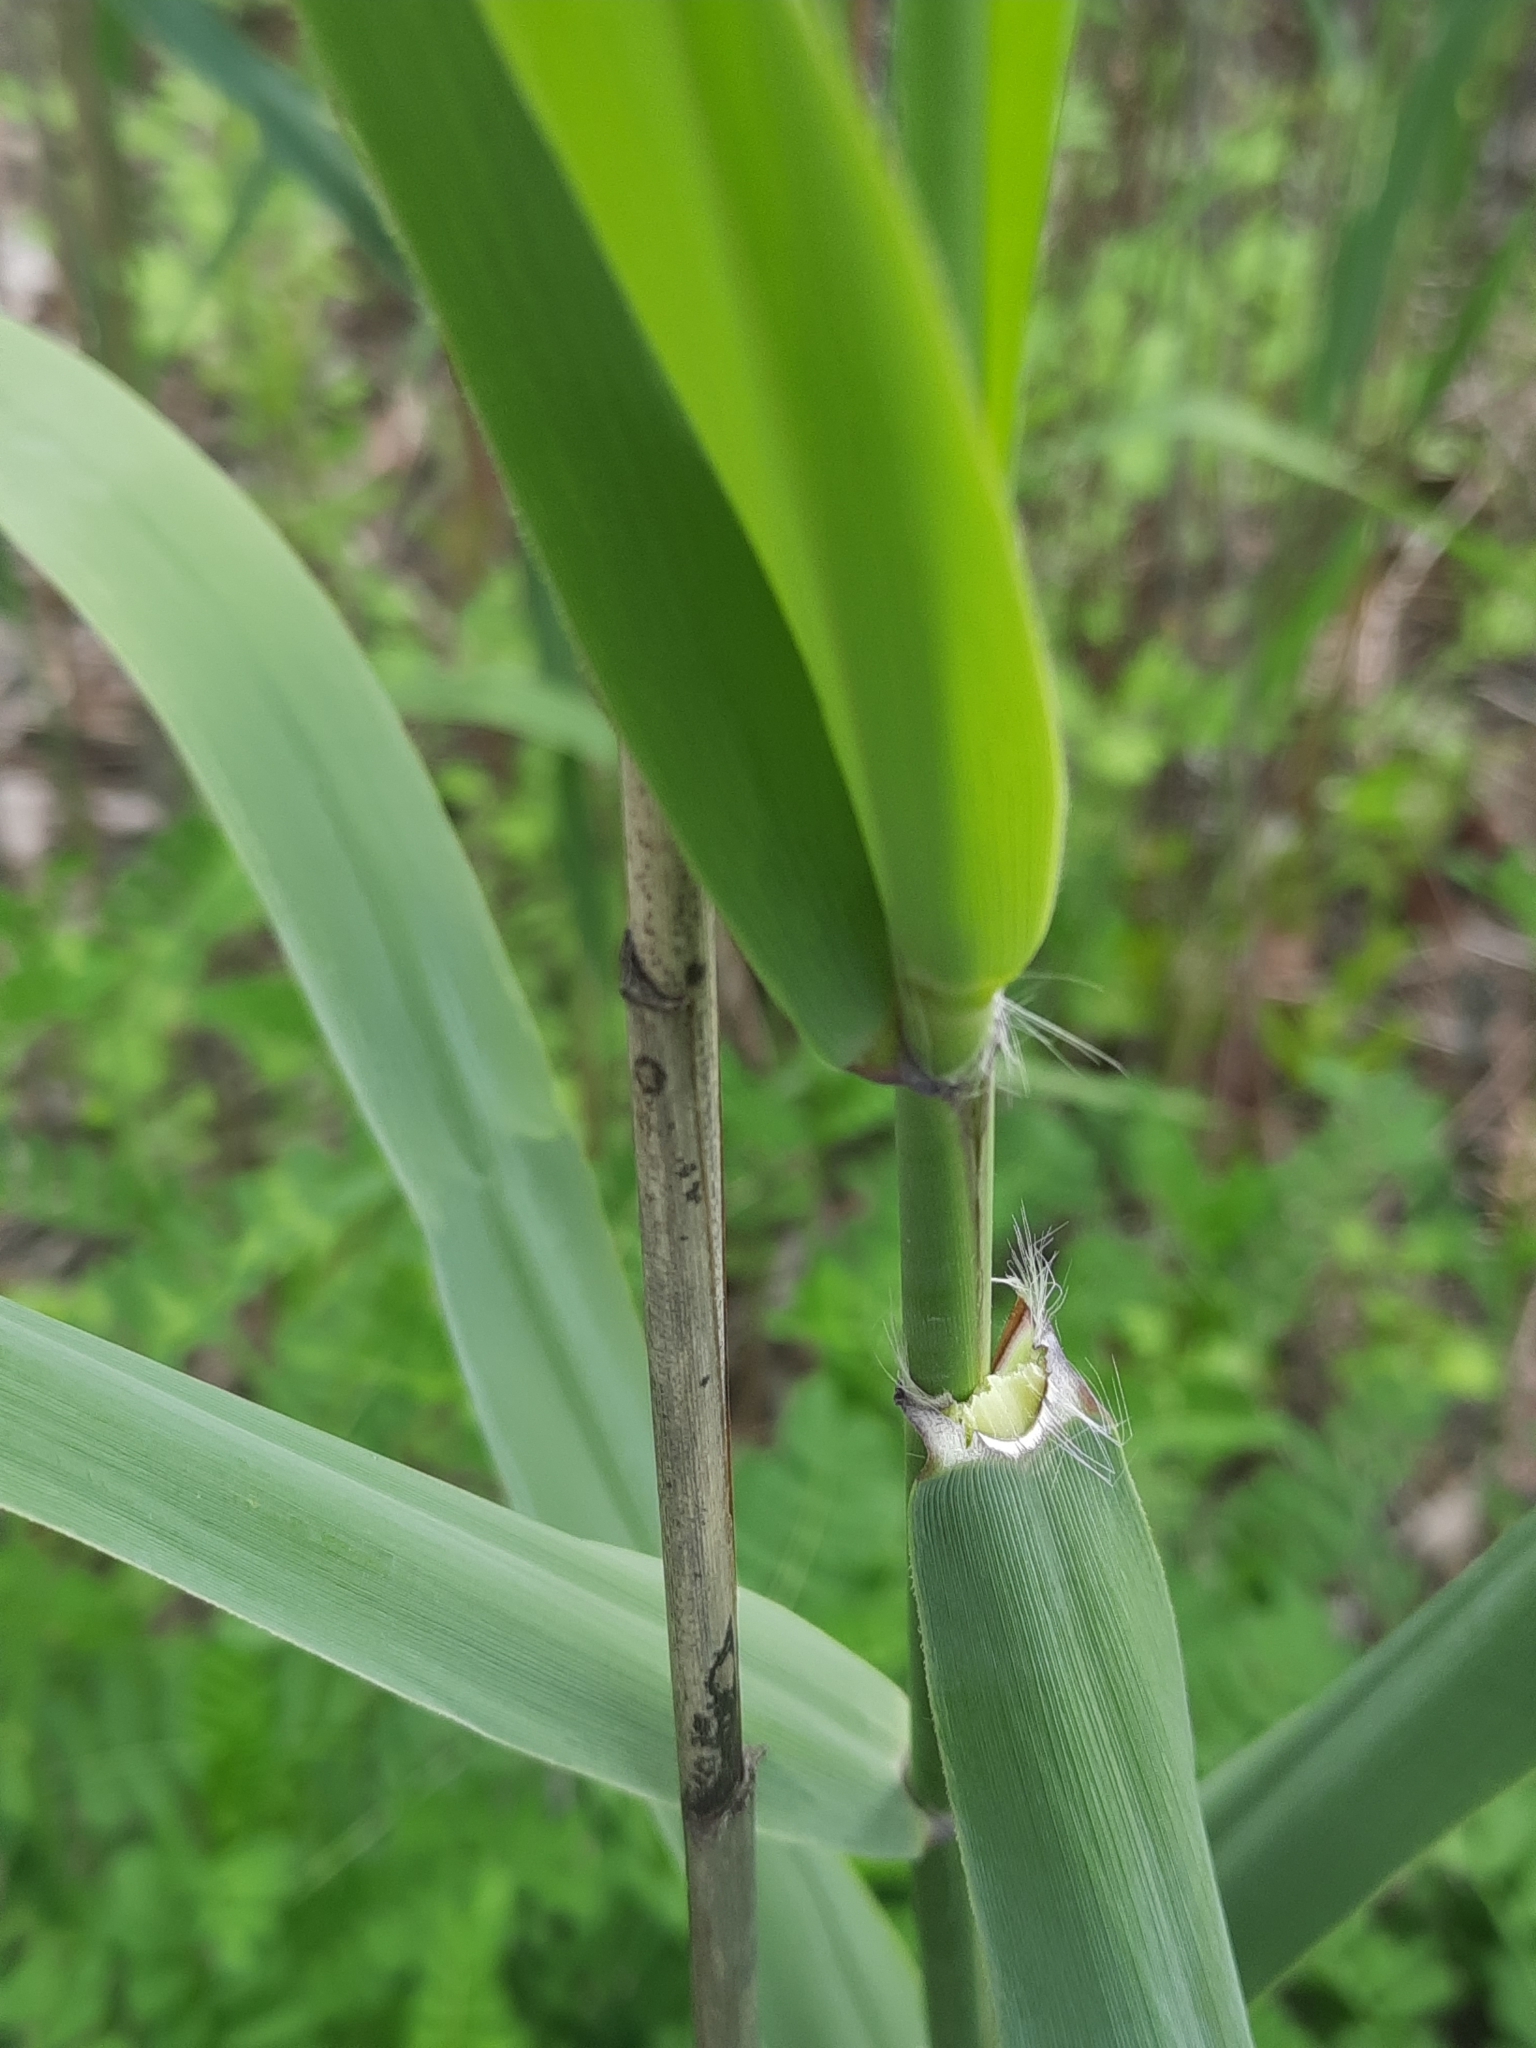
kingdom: Plantae
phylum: Tracheophyta
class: Liliopsida
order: Poales
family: Poaceae
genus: Phragmites
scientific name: Phragmites australis
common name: Common reed
